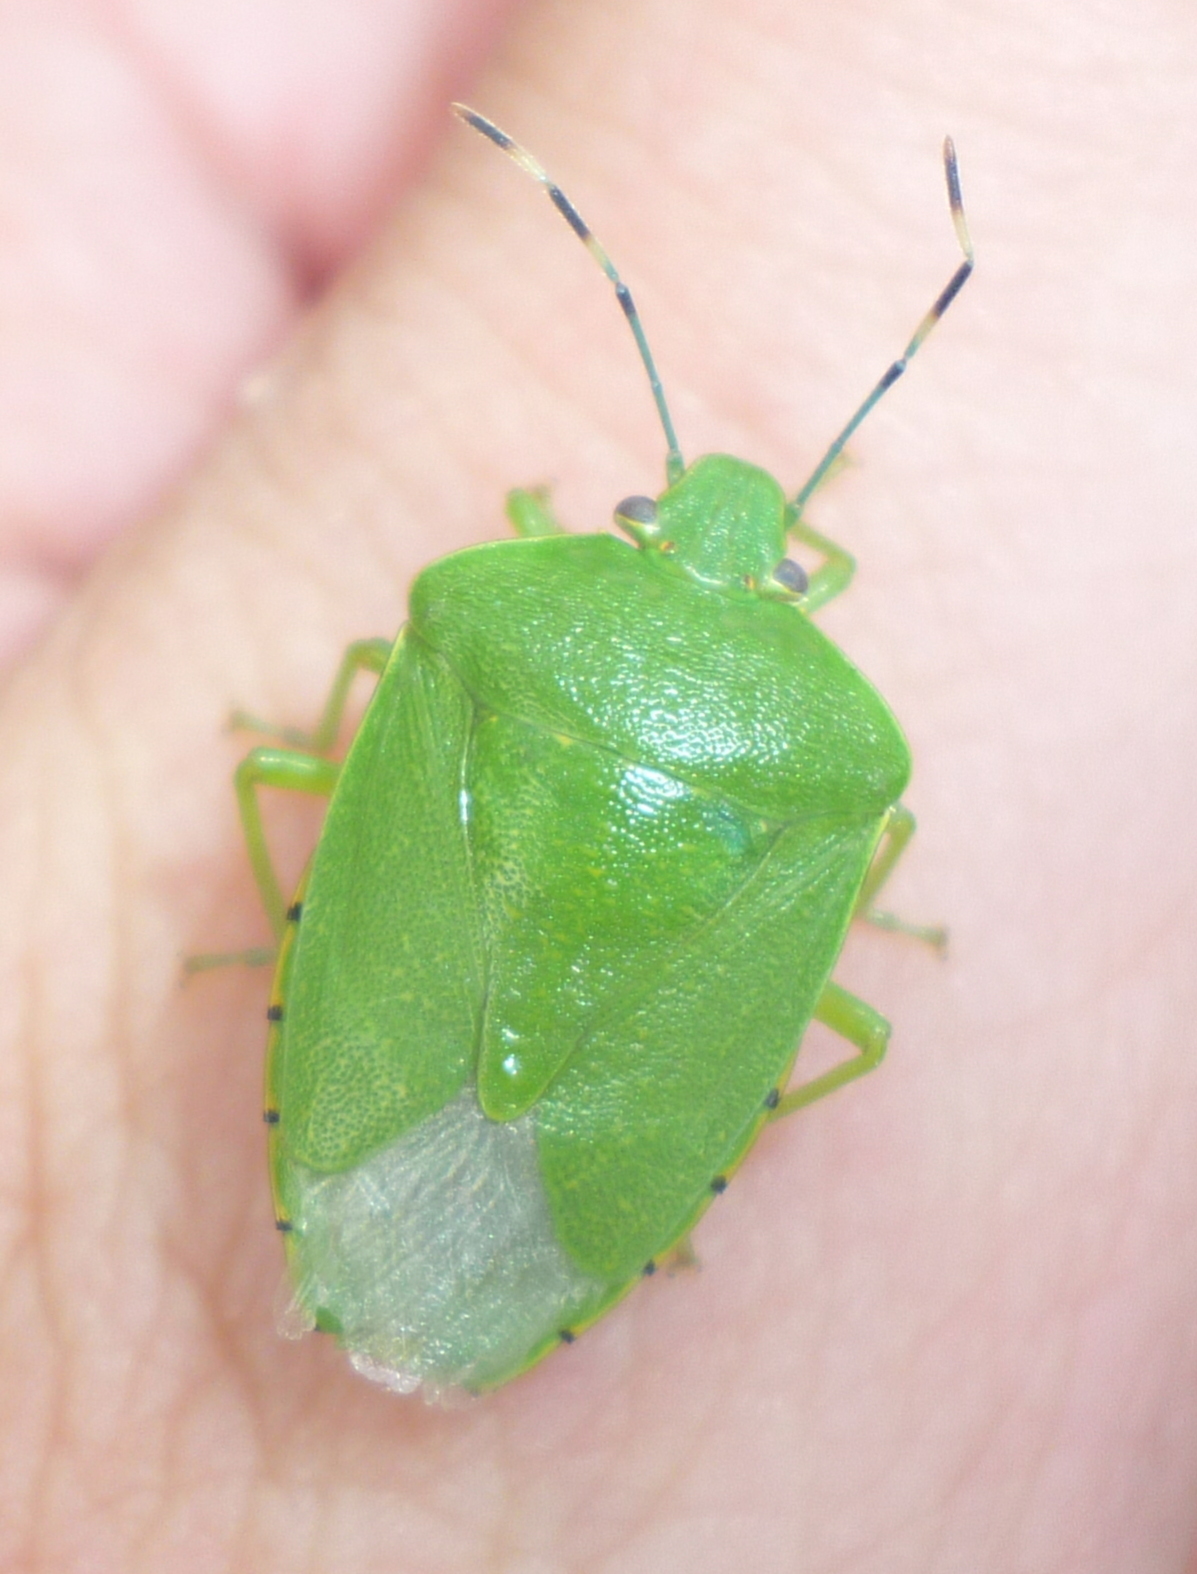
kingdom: Animalia
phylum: Arthropoda
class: Insecta
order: Hemiptera
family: Pentatomidae
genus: Chinavia
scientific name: Chinavia hilaris
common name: Green stink bug
